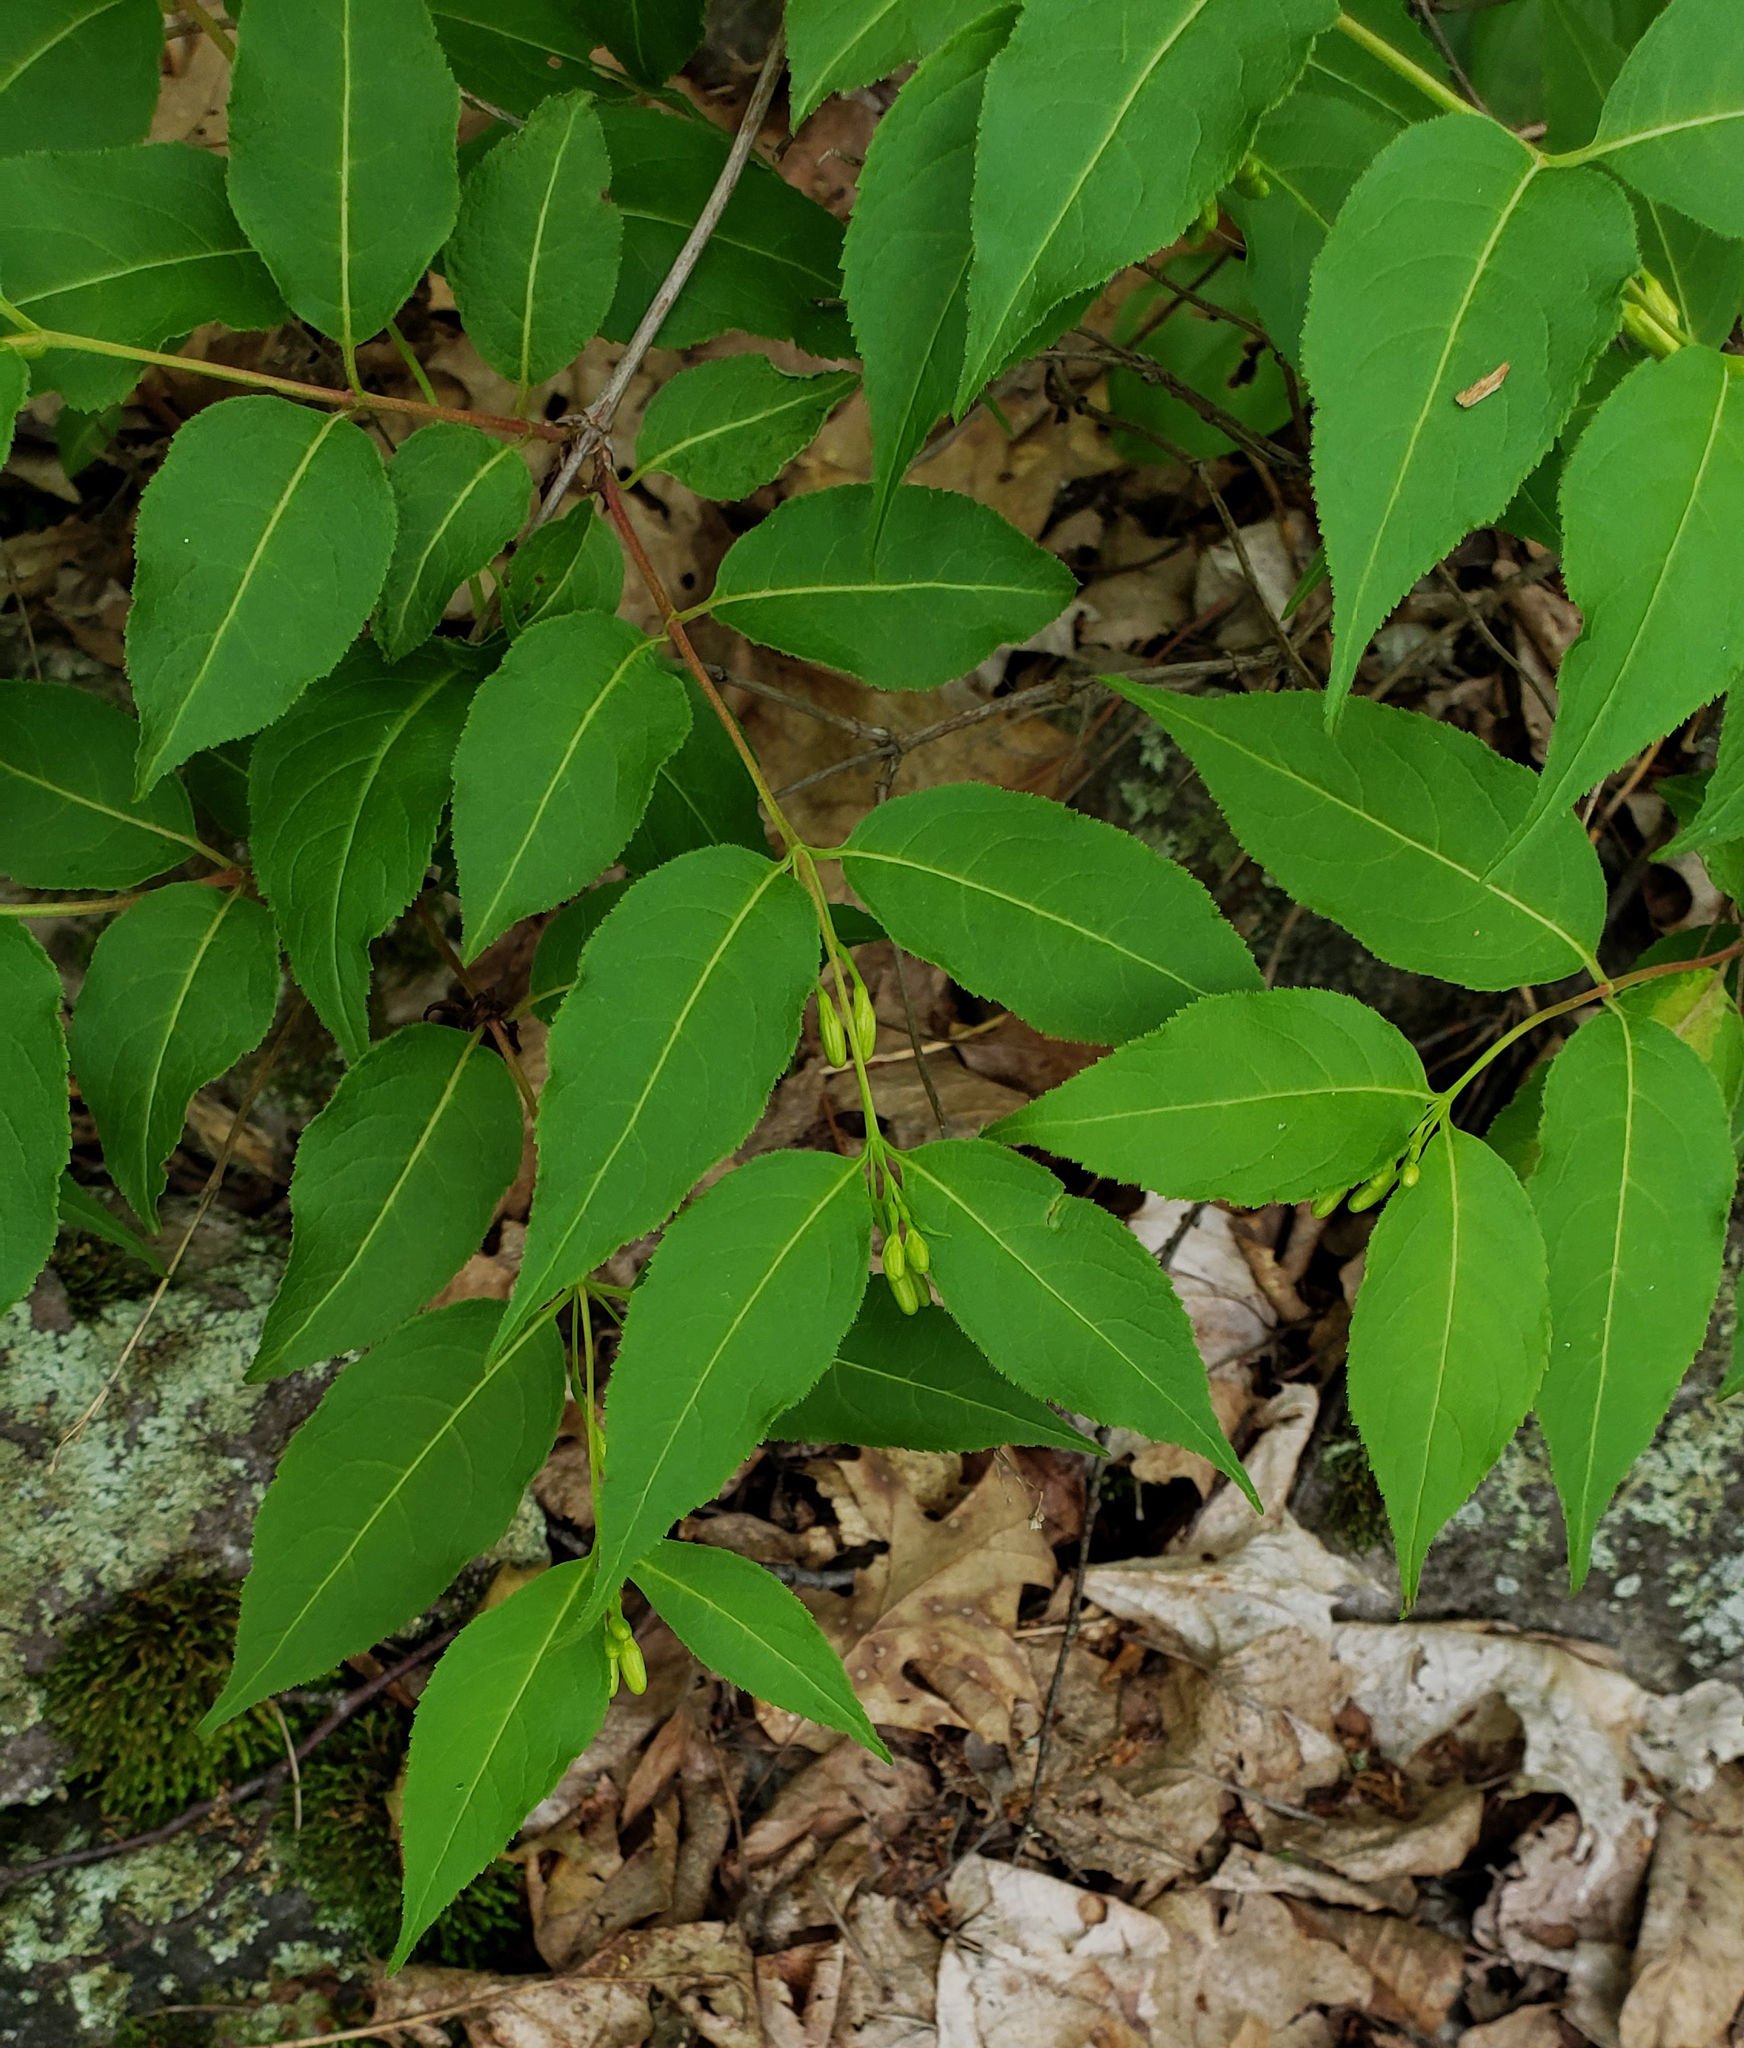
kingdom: Plantae
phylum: Tracheophyta
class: Magnoliopsida
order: Dipsacales
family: Caprifoliaceae
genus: Diervilla
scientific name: Diervilla lonicera
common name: Bush-honeysuckle
